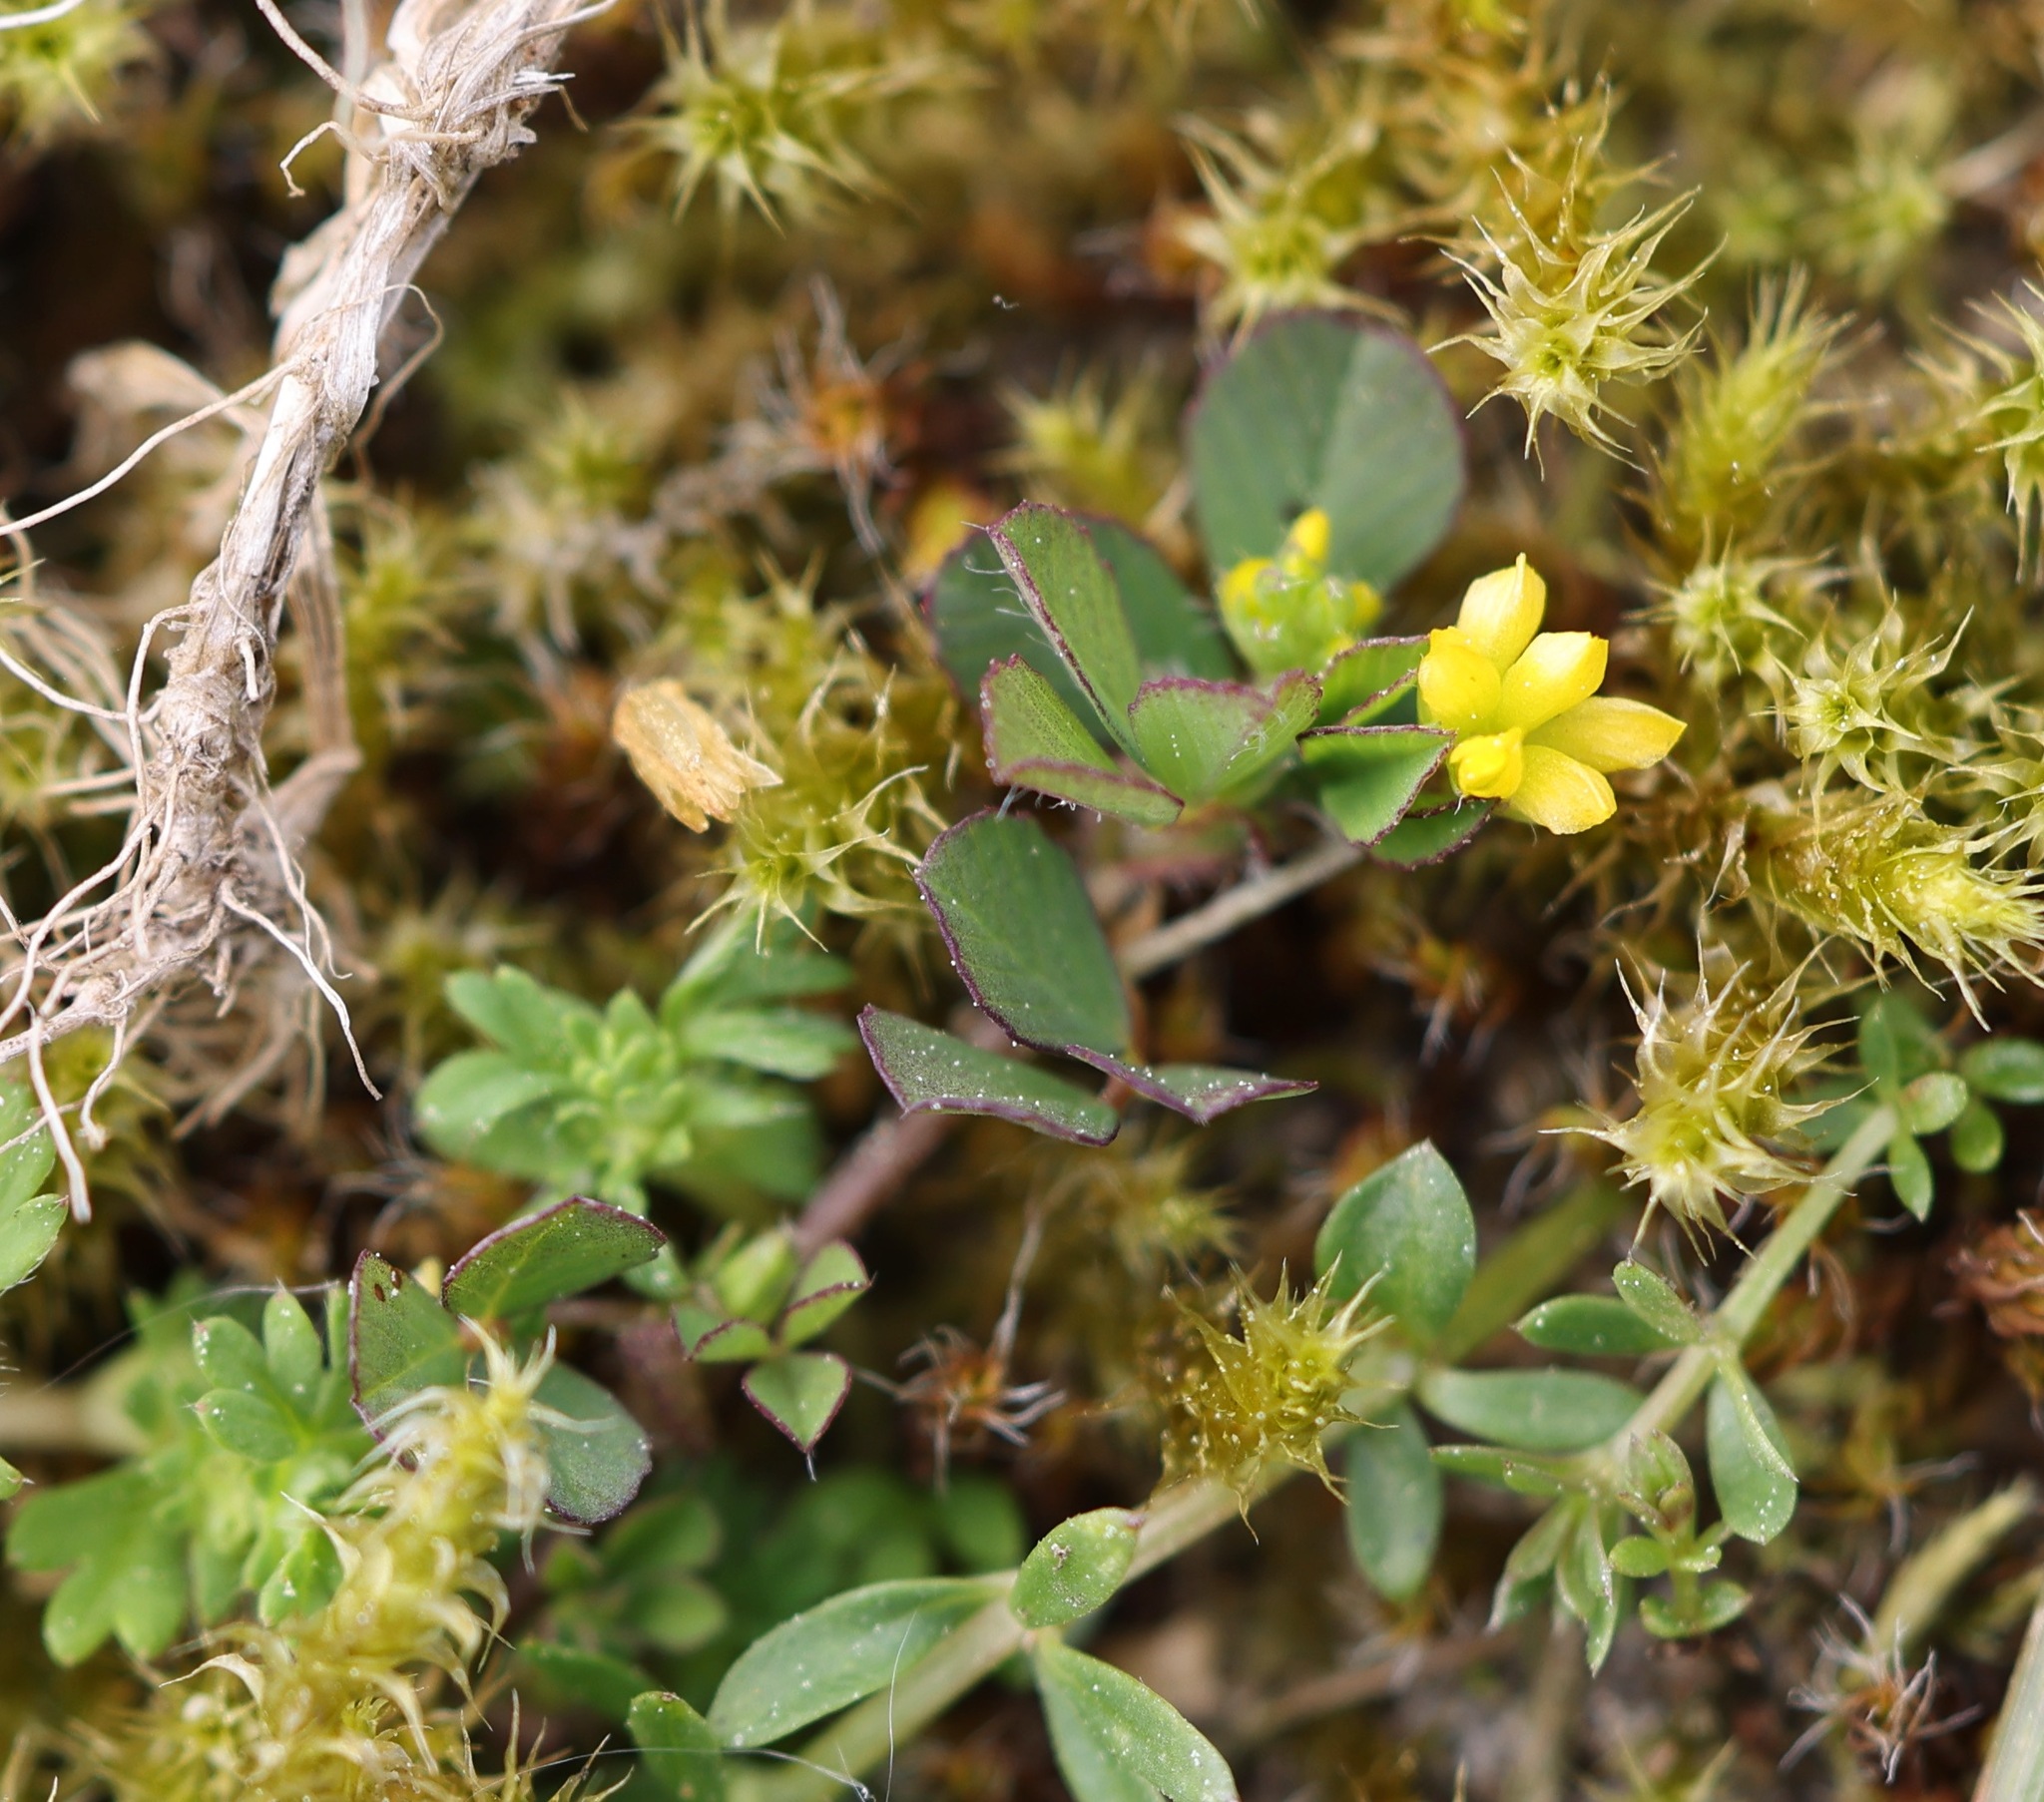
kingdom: Plantae
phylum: Tracheophyta
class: Magnoliopsida
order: Fabales
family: Fabaceae
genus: Trifolium
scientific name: Trifolium dubium
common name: Suckling clover
